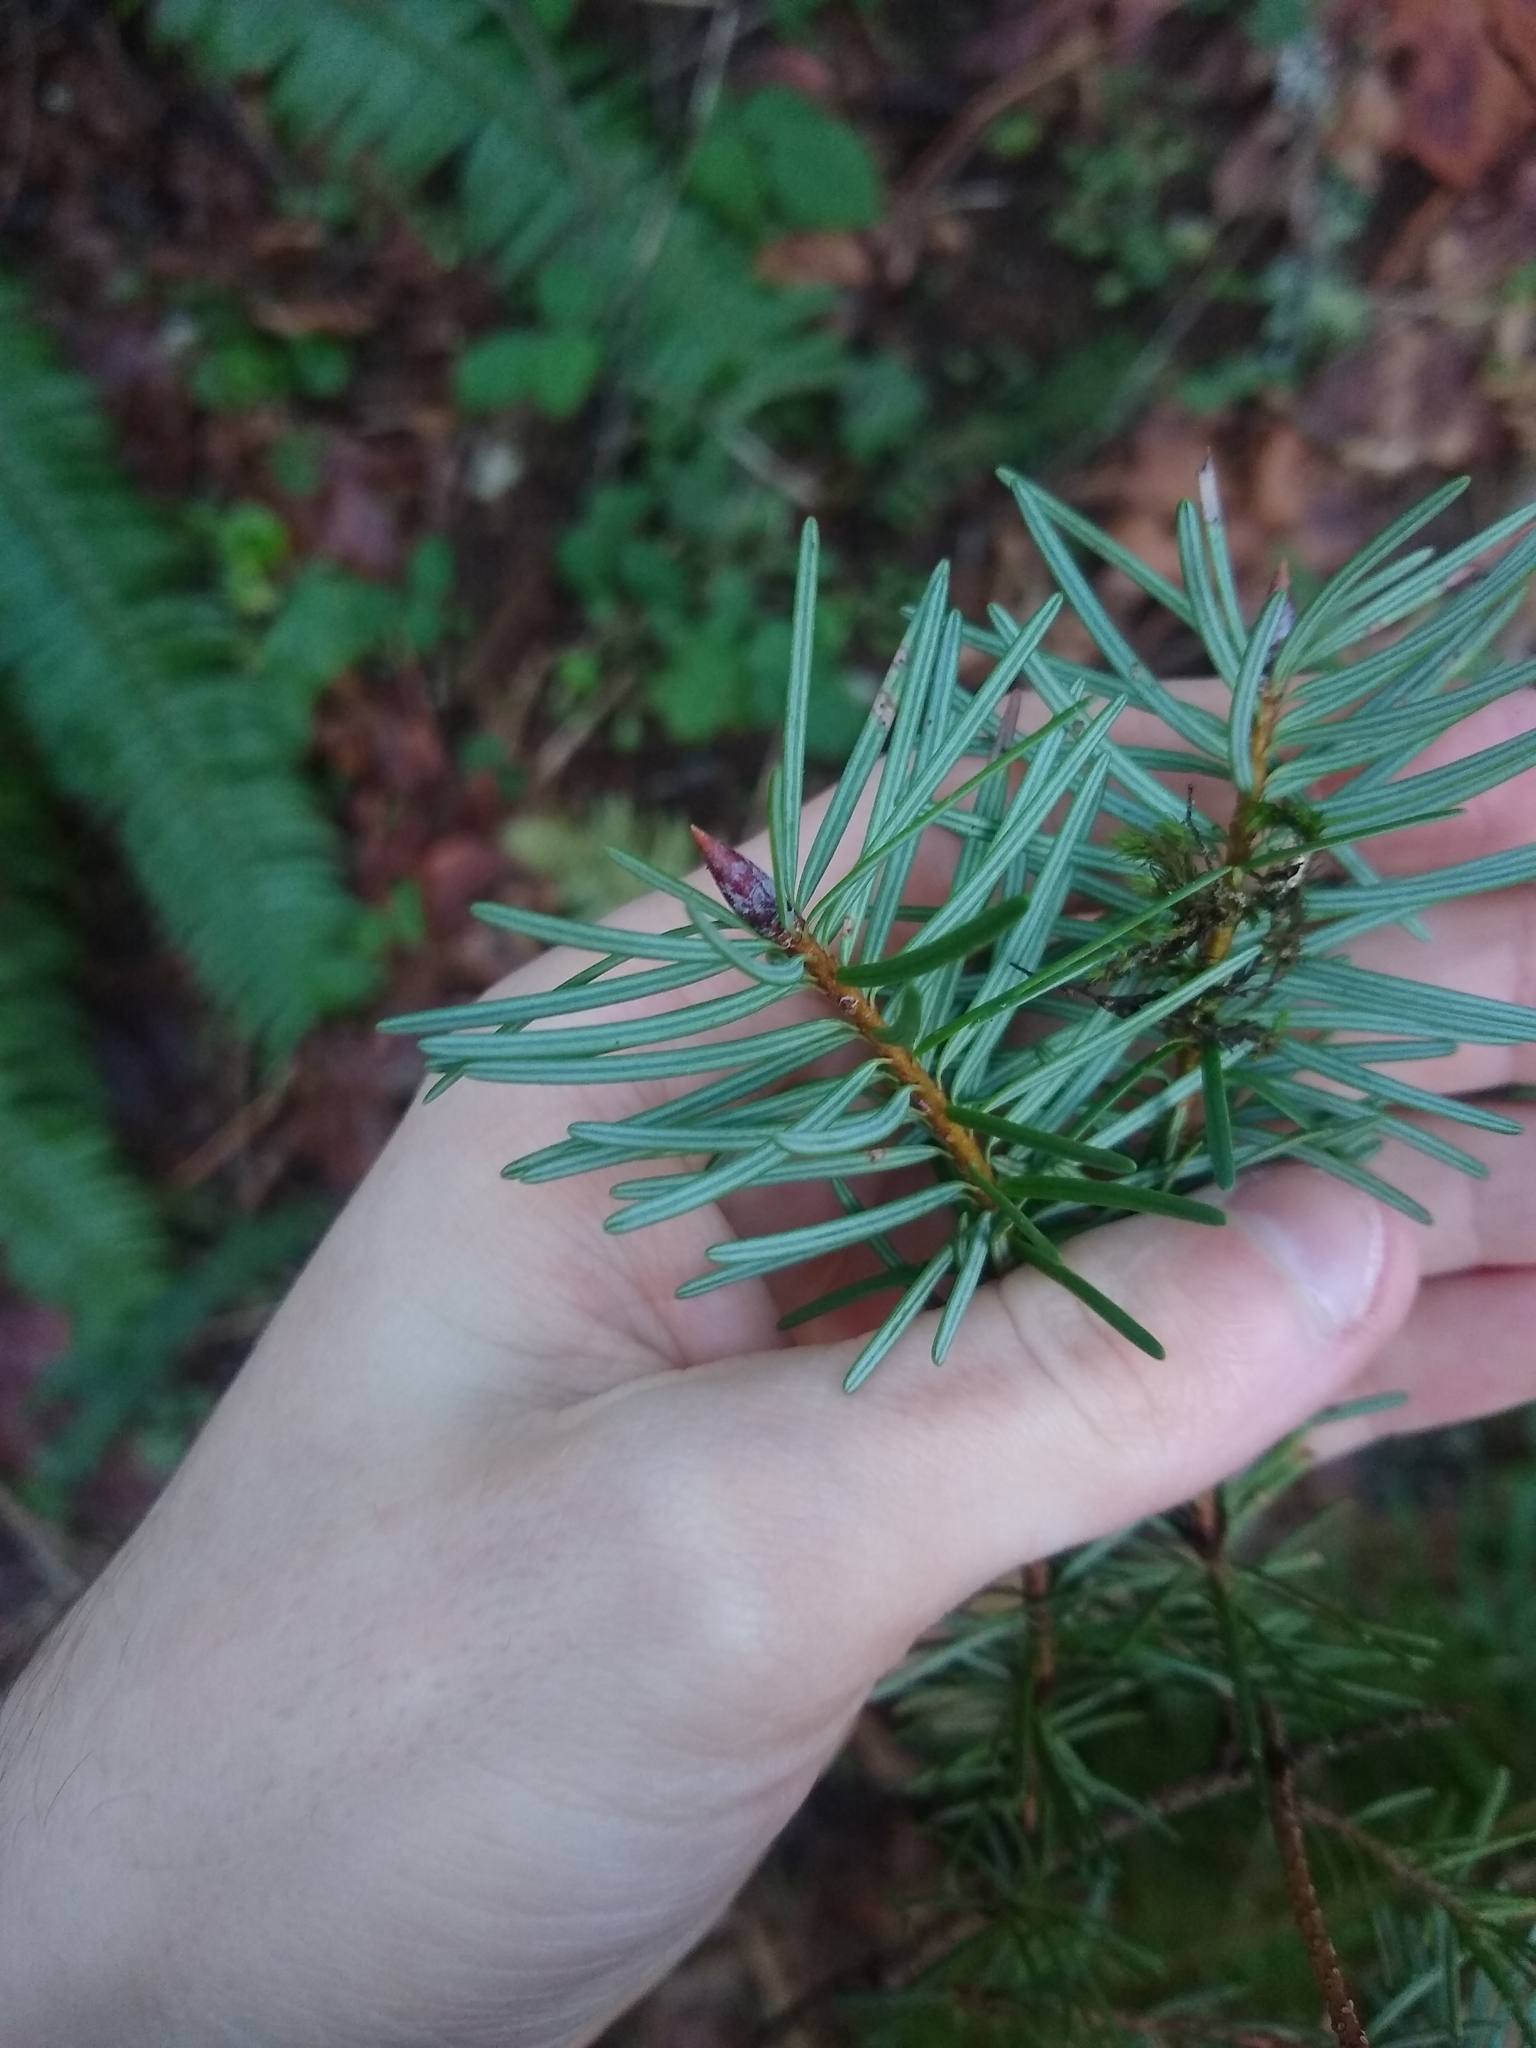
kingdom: Plantae
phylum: Tracheophyta
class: Pinopsida
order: Pinales
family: Pinaceae
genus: Pseudotsuga
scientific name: Pseudotsuga menziesii
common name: Douglas fir
